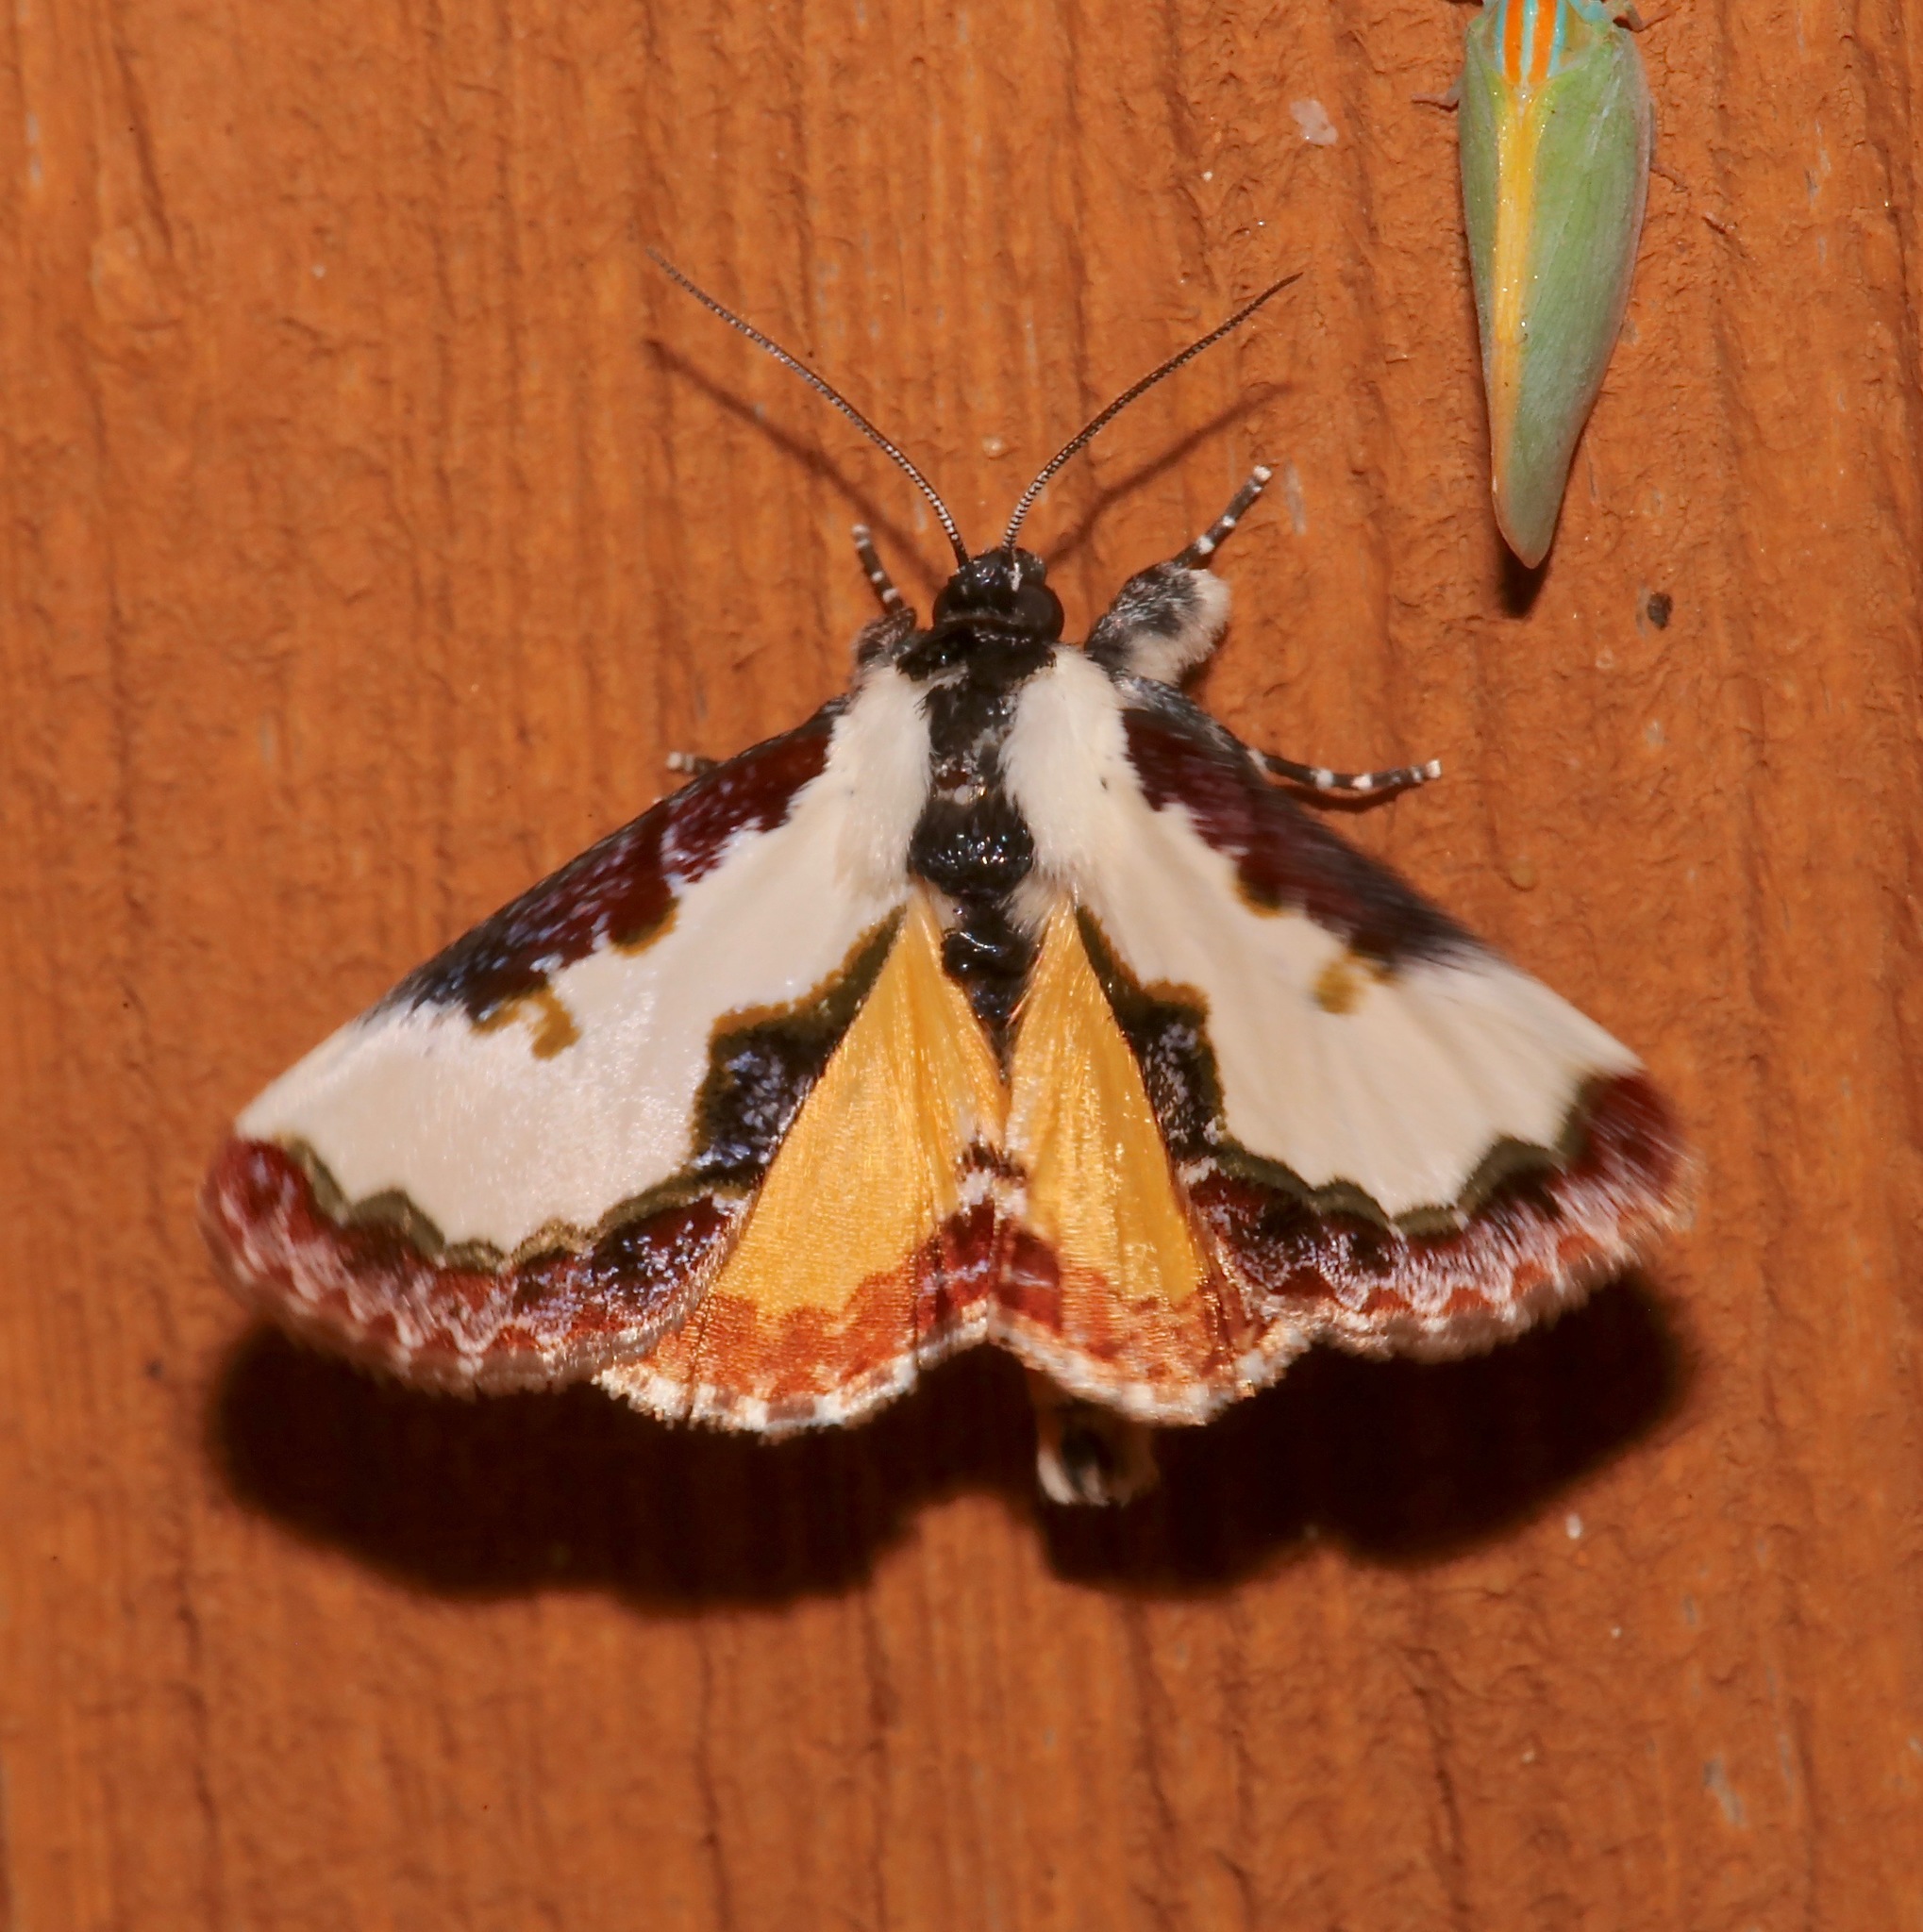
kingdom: Animalia
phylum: Arthropoda
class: Insecta
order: Lepidoptera
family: Noctuidae
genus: Eudryas
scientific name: Eudryas unio
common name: Pearly wood-nymph
